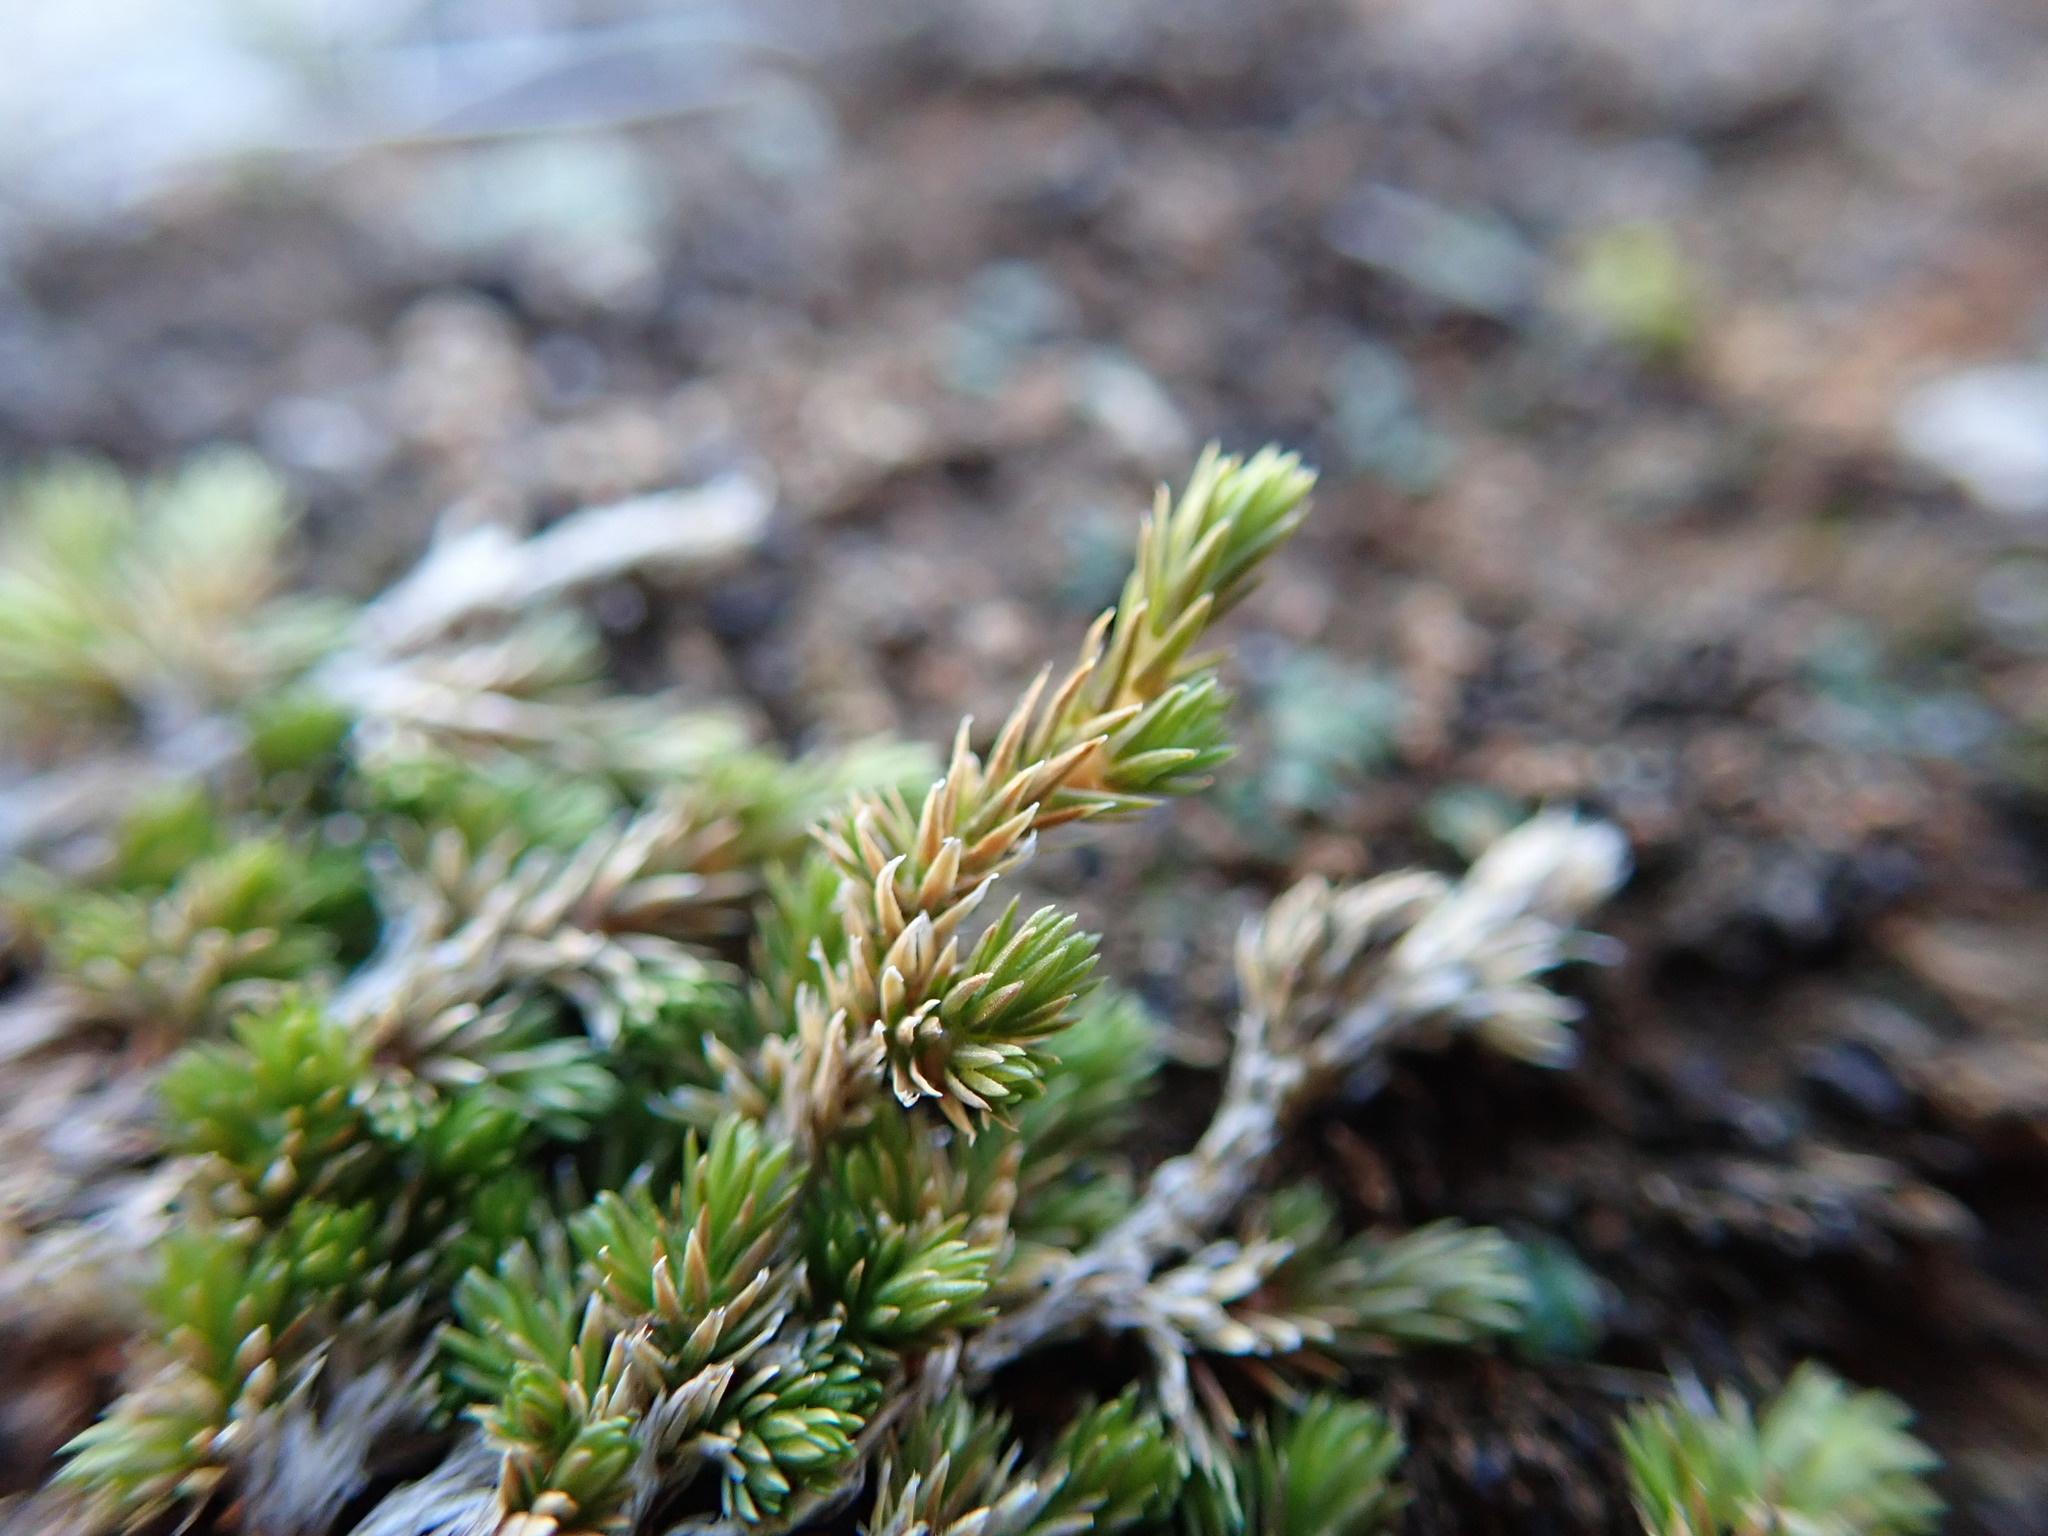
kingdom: Plantae
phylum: Tracheophyta
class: Lycopodiopsida
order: Selaginellales
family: Selaginellaceae
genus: Selaginella
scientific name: Selaginella cinerascens
